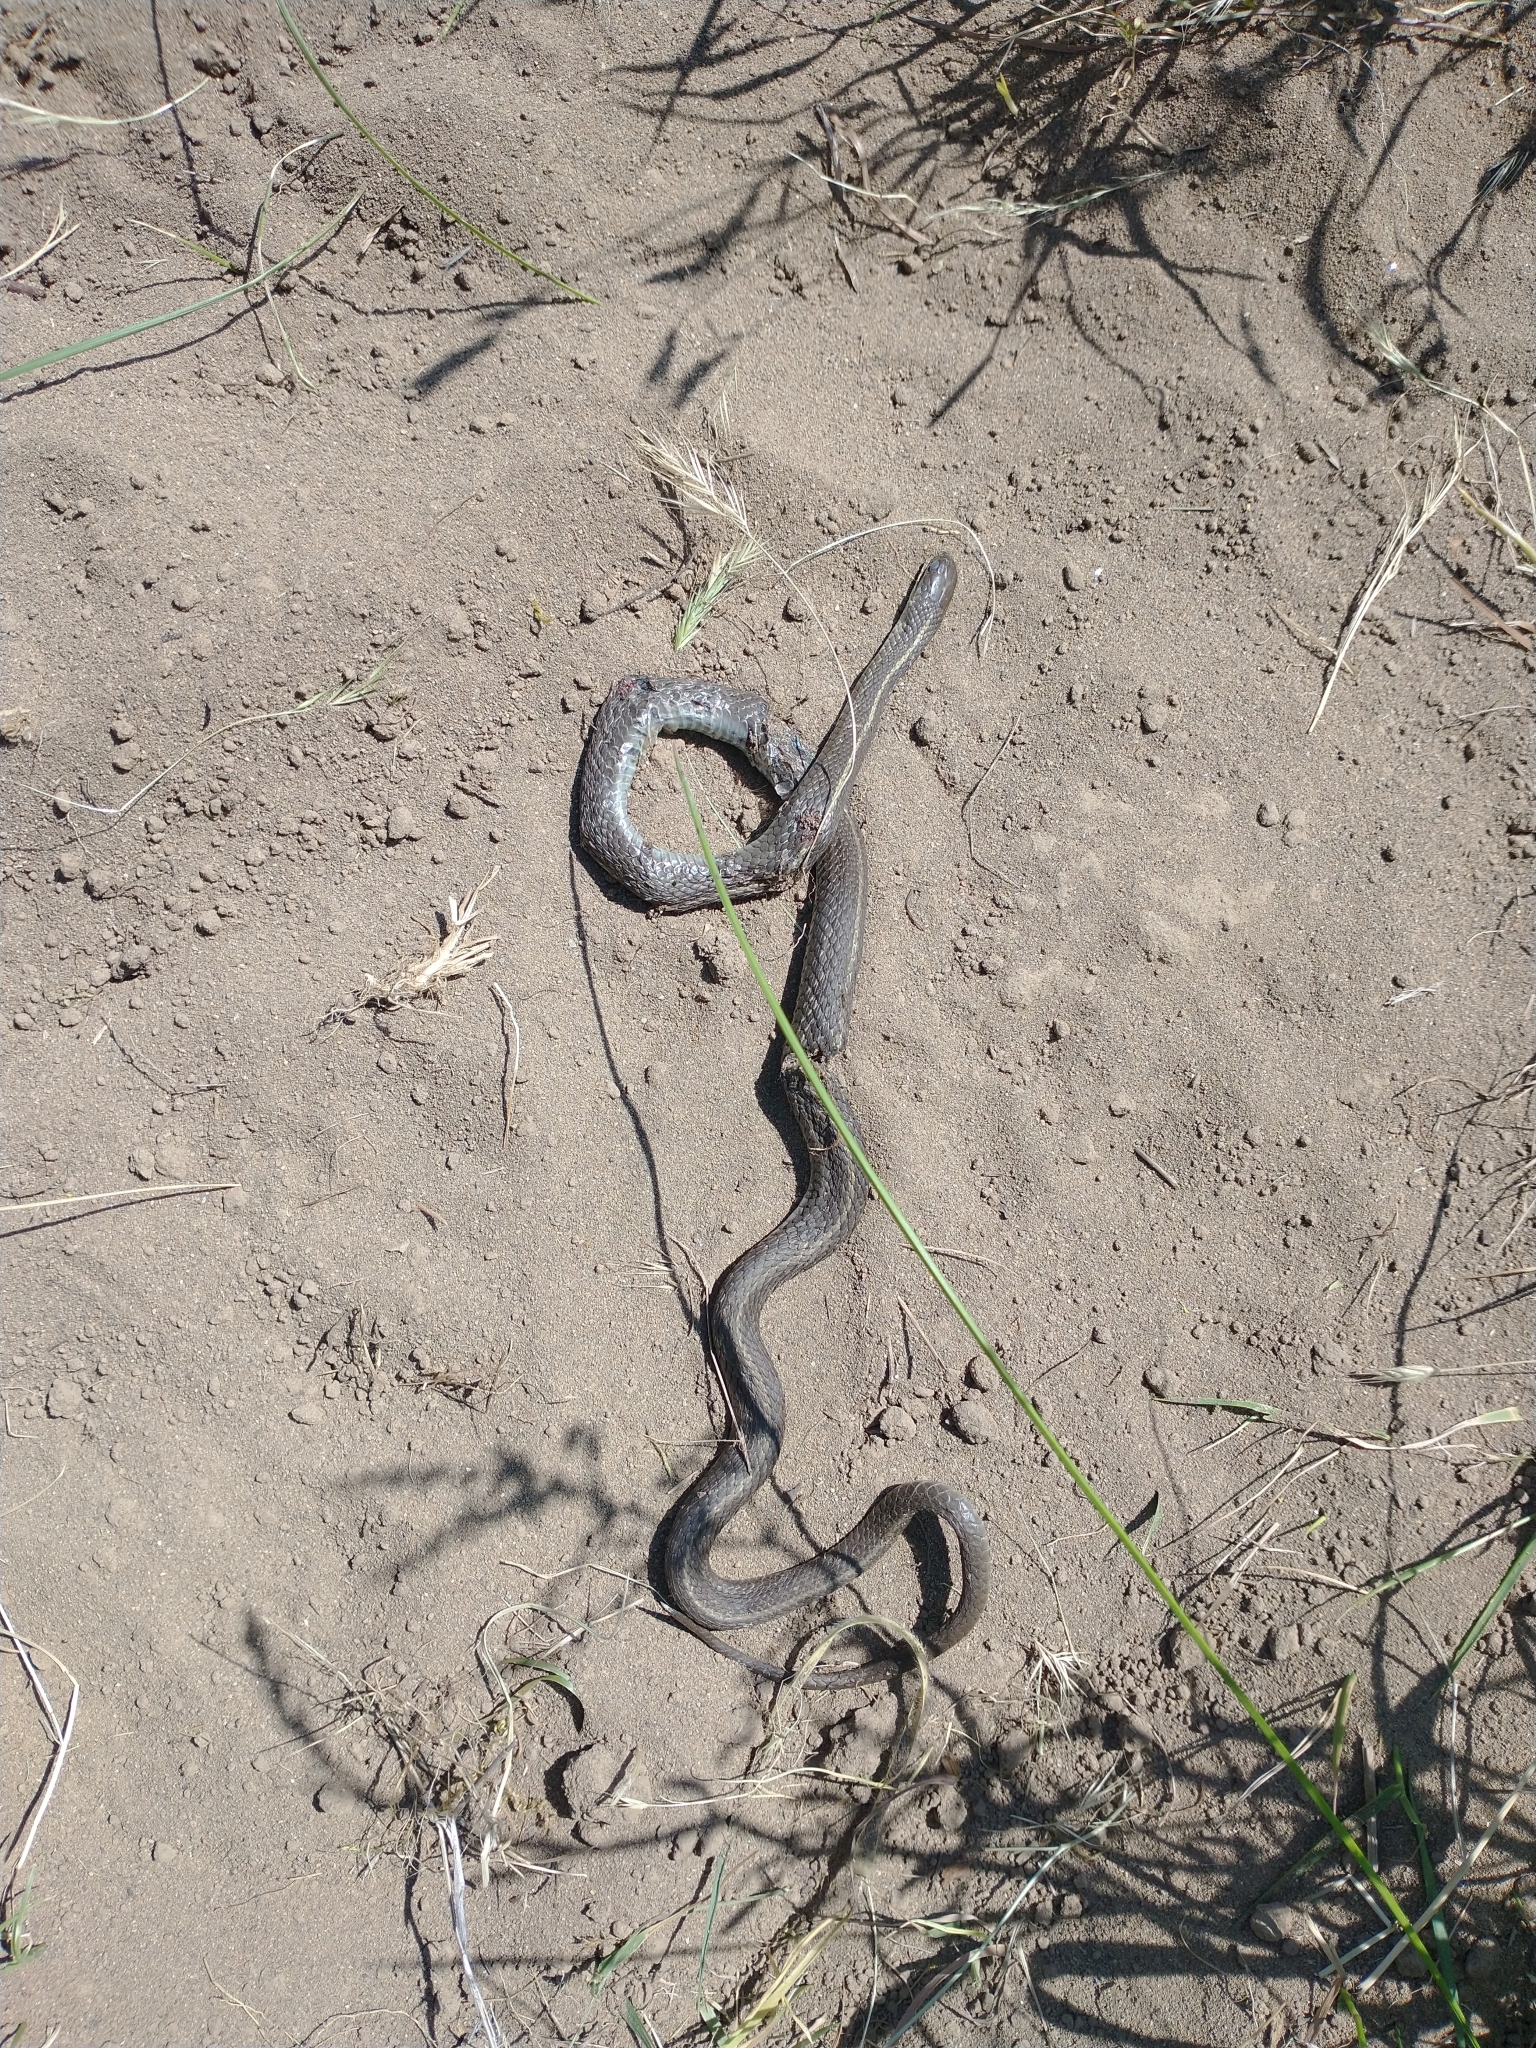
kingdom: Animalia
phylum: Chordata
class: Squamata
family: Colubridae
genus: Thamnophis
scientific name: Thamnophis ordinoides
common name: Northwestern garter snake
